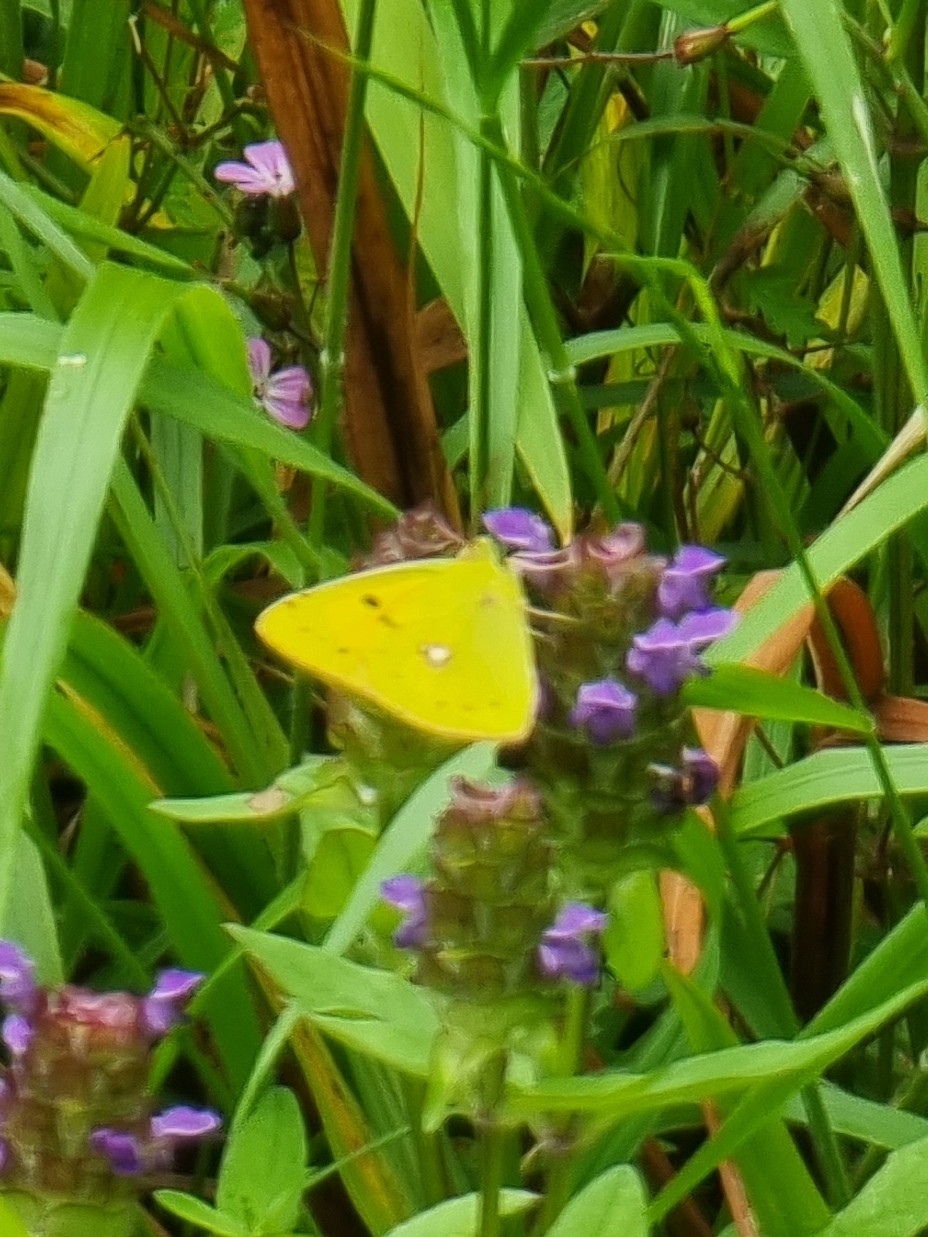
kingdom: Animalia
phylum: Arthropoda
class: Insecta
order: Lepidoptera
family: Pieridae
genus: Colias
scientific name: Colias croceus
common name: Clouded yellow
